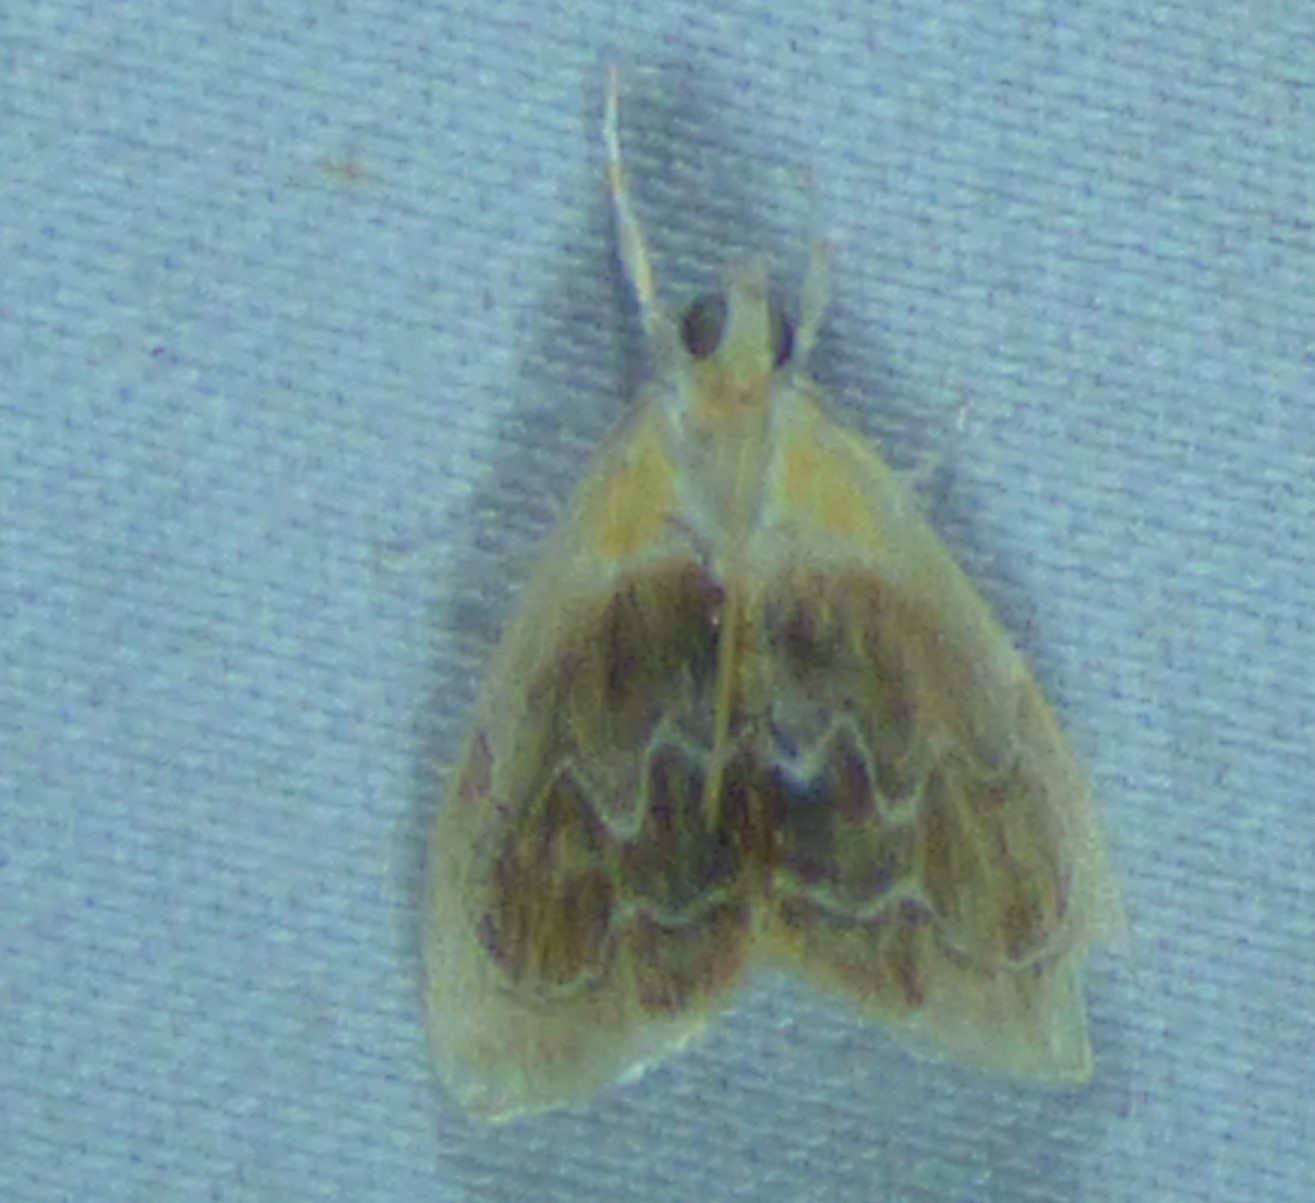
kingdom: Animalia
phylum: Arthropoda
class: Insecta
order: Lepidoptera
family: Crambidae
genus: Glaphyria
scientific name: Glaphyria fulminalis
